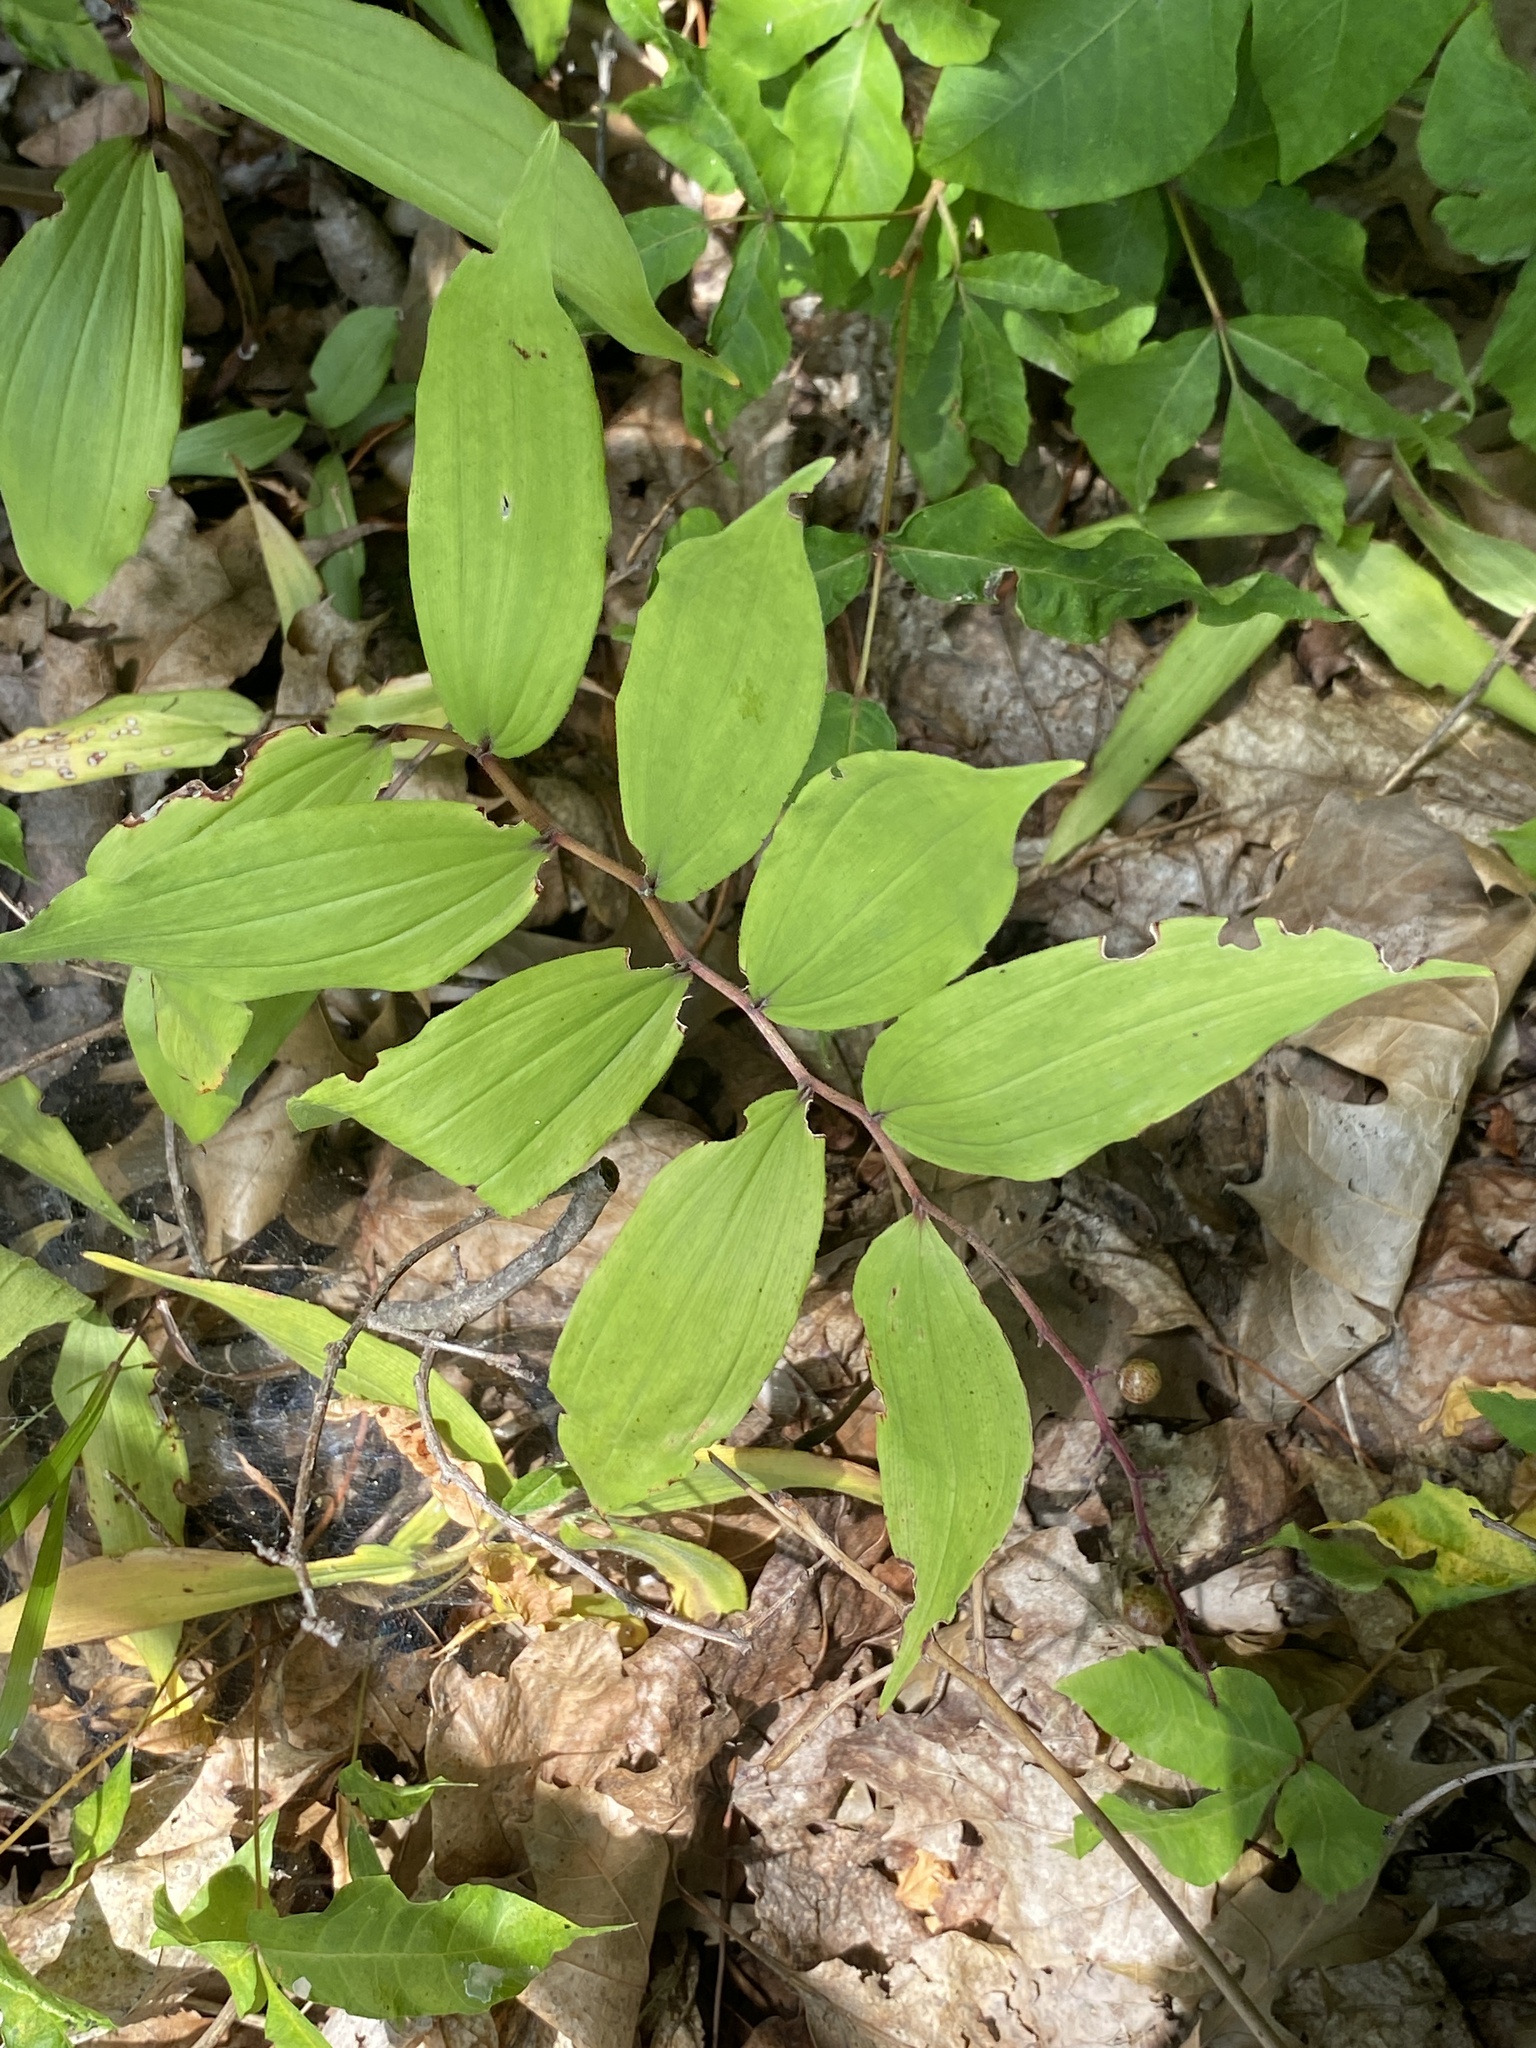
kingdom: Plantae
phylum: Tracheophyta
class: Liliopsida
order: Asparagales
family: Asparagaceae
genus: Maianthemum
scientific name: Maianthemum racemosum
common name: False spikenard
